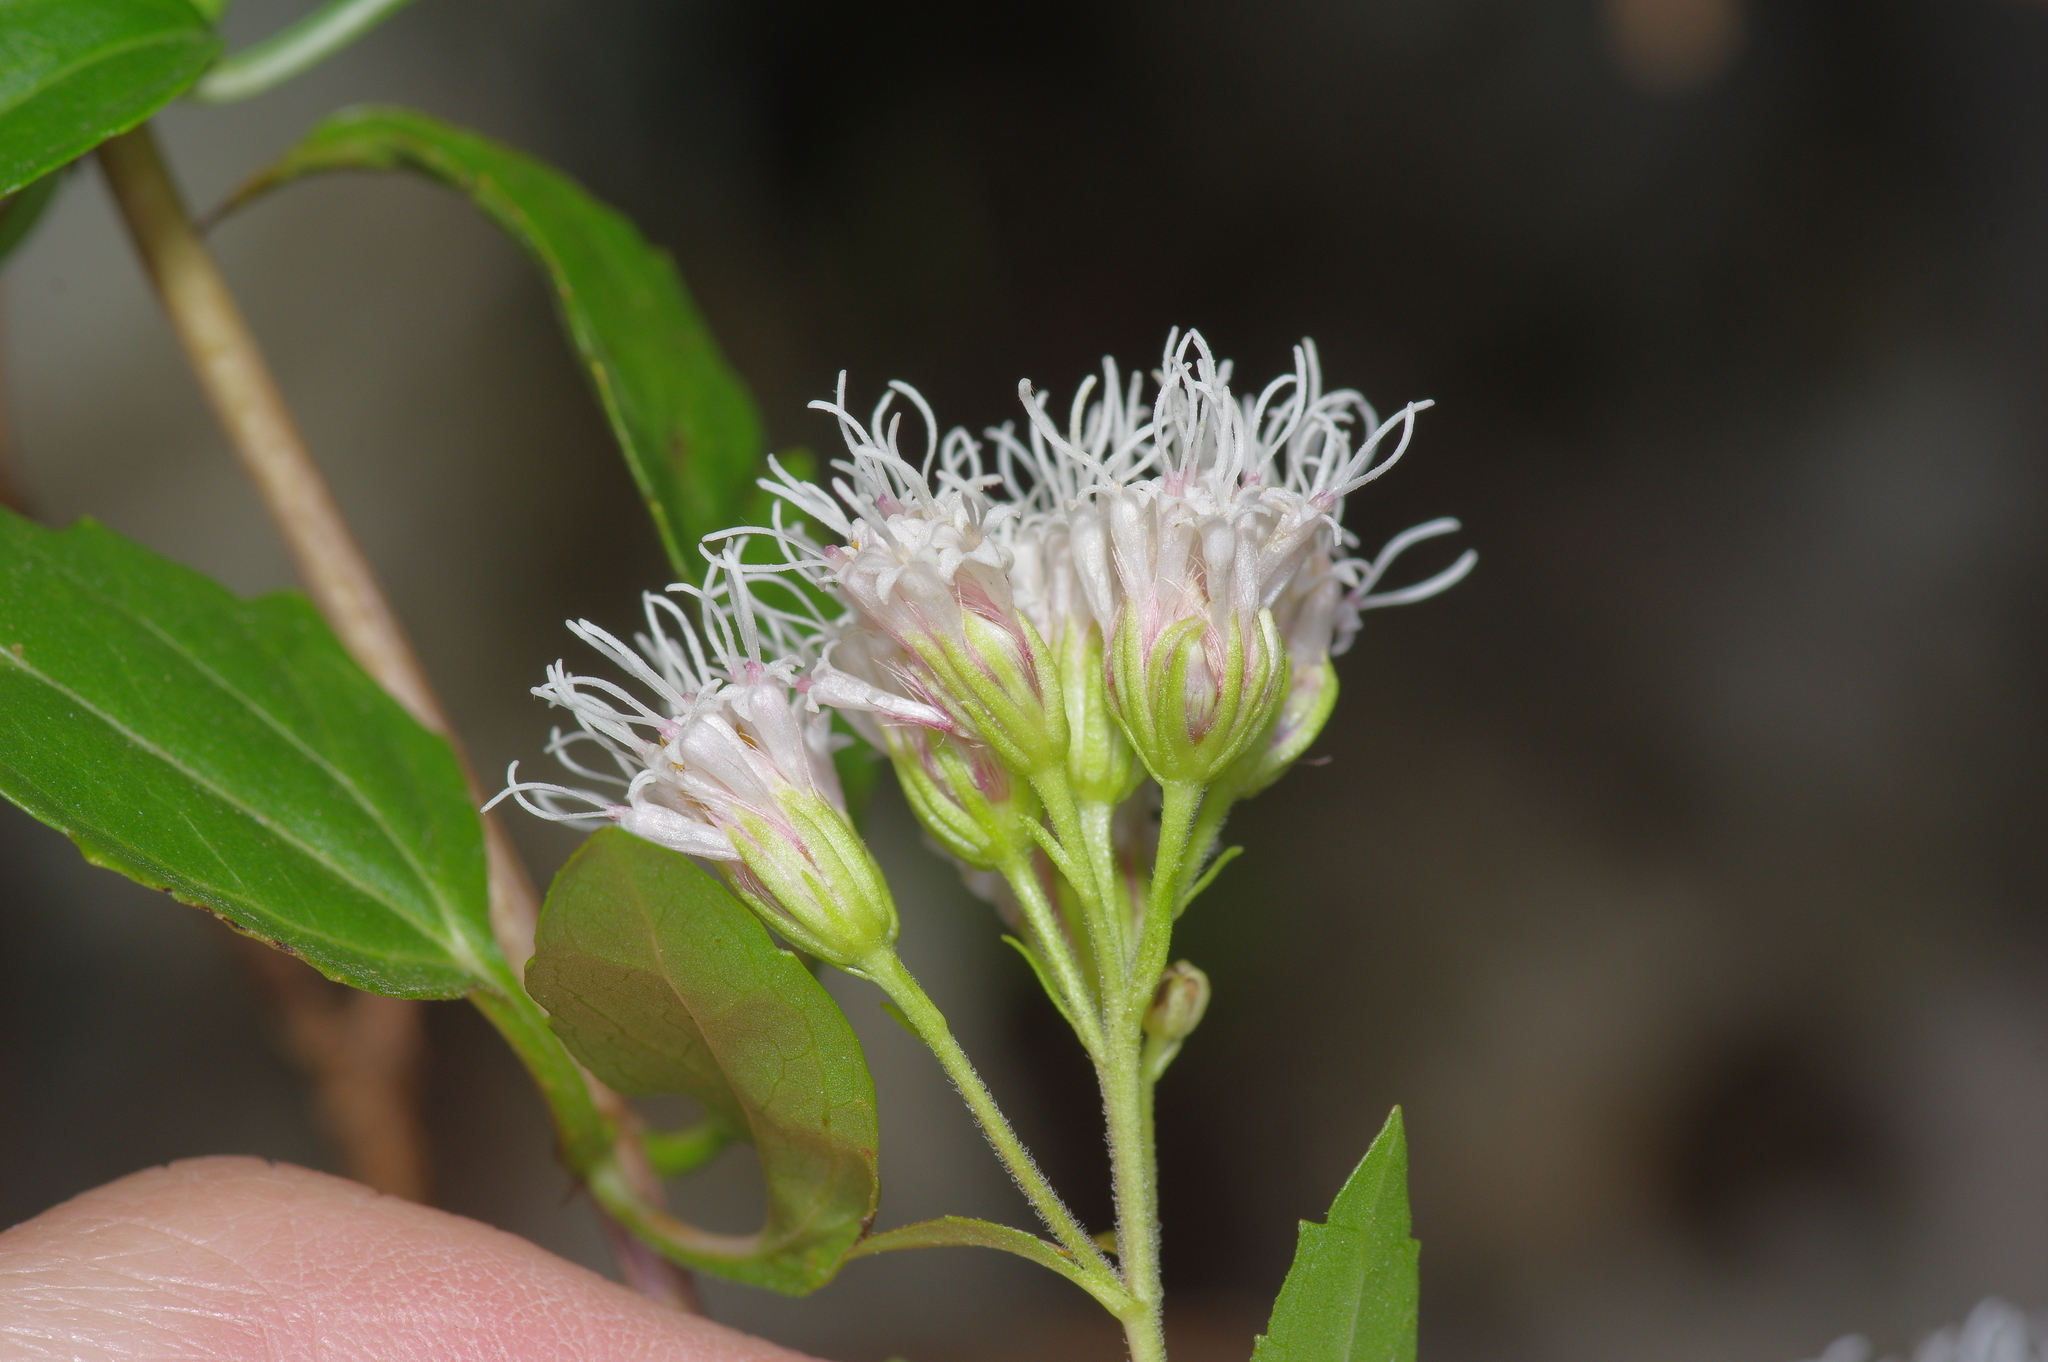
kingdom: Plantae
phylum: Tracheophyta
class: Magnoliopsida
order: Asterales
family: Asteraceae
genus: Ageratina
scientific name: Ageratina havanensis
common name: Havana snakeroot
